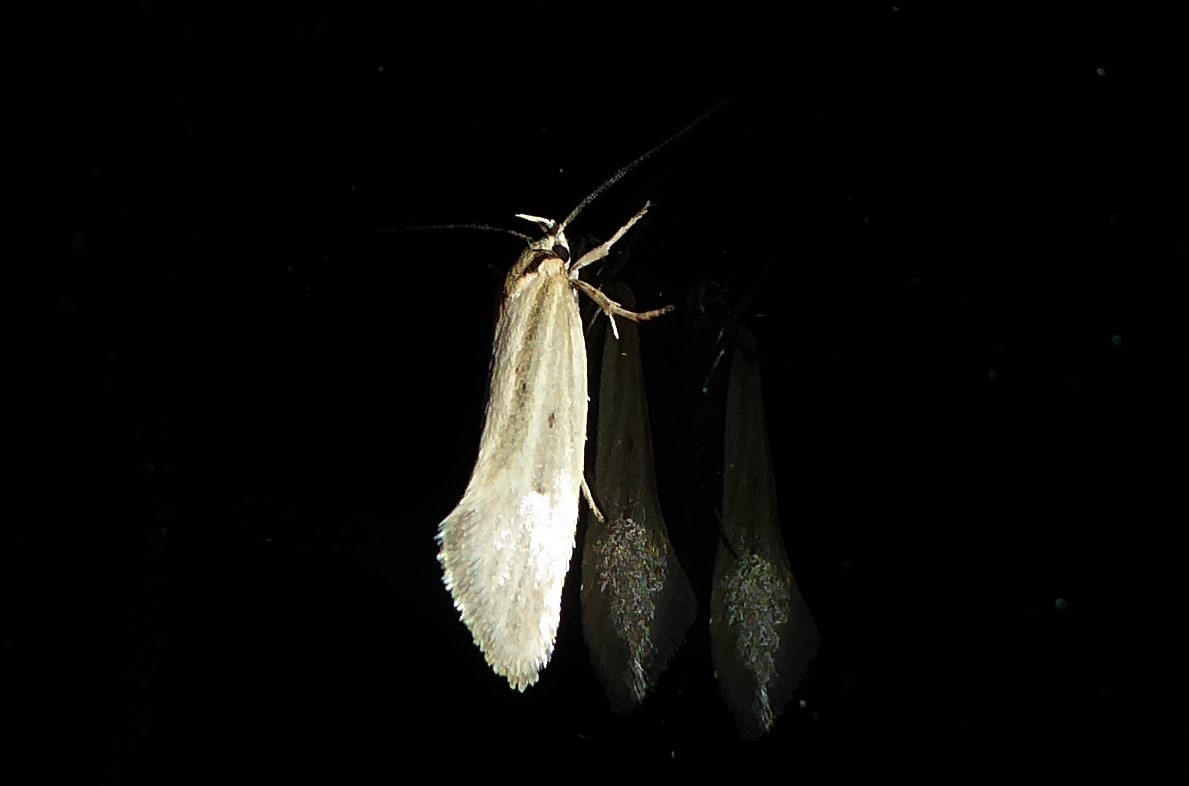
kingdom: Animalia
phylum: Arthropoda
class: Insecta
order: Lepidoptera
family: Oecophoridae
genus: Tingena
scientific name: Tingena chloradelpha
